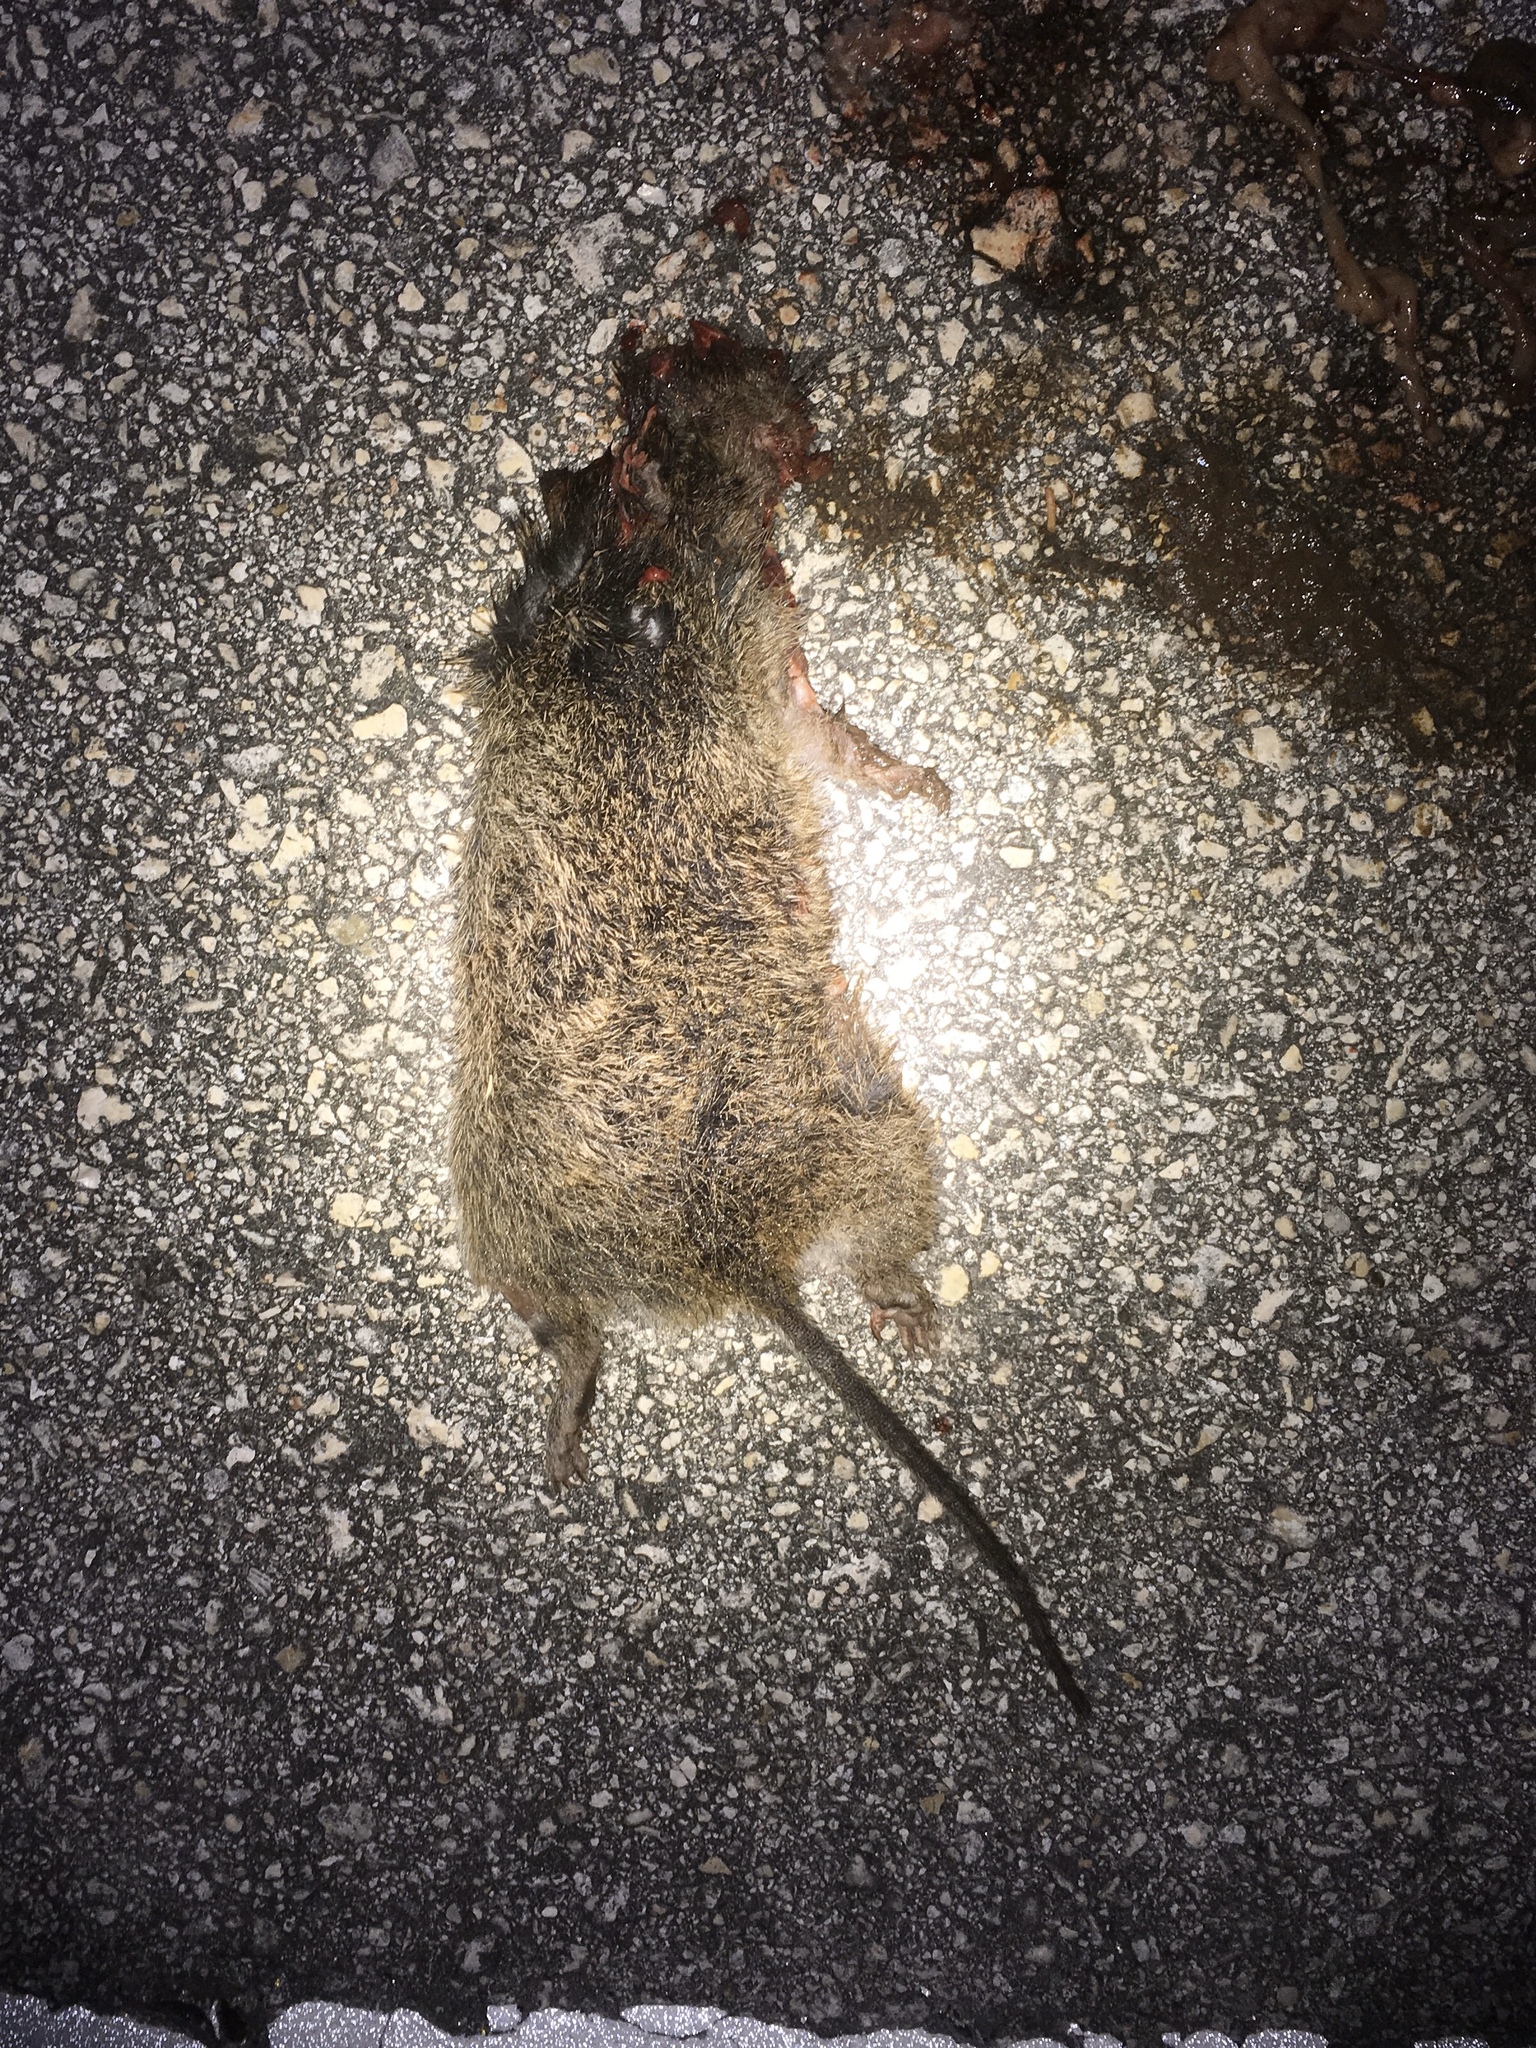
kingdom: Animalia
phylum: Chordata
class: Mammalia
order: Rodentia
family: Cricetidae
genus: Sigmodon
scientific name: Sigmodon hispidus
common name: Hispid cotton rat
